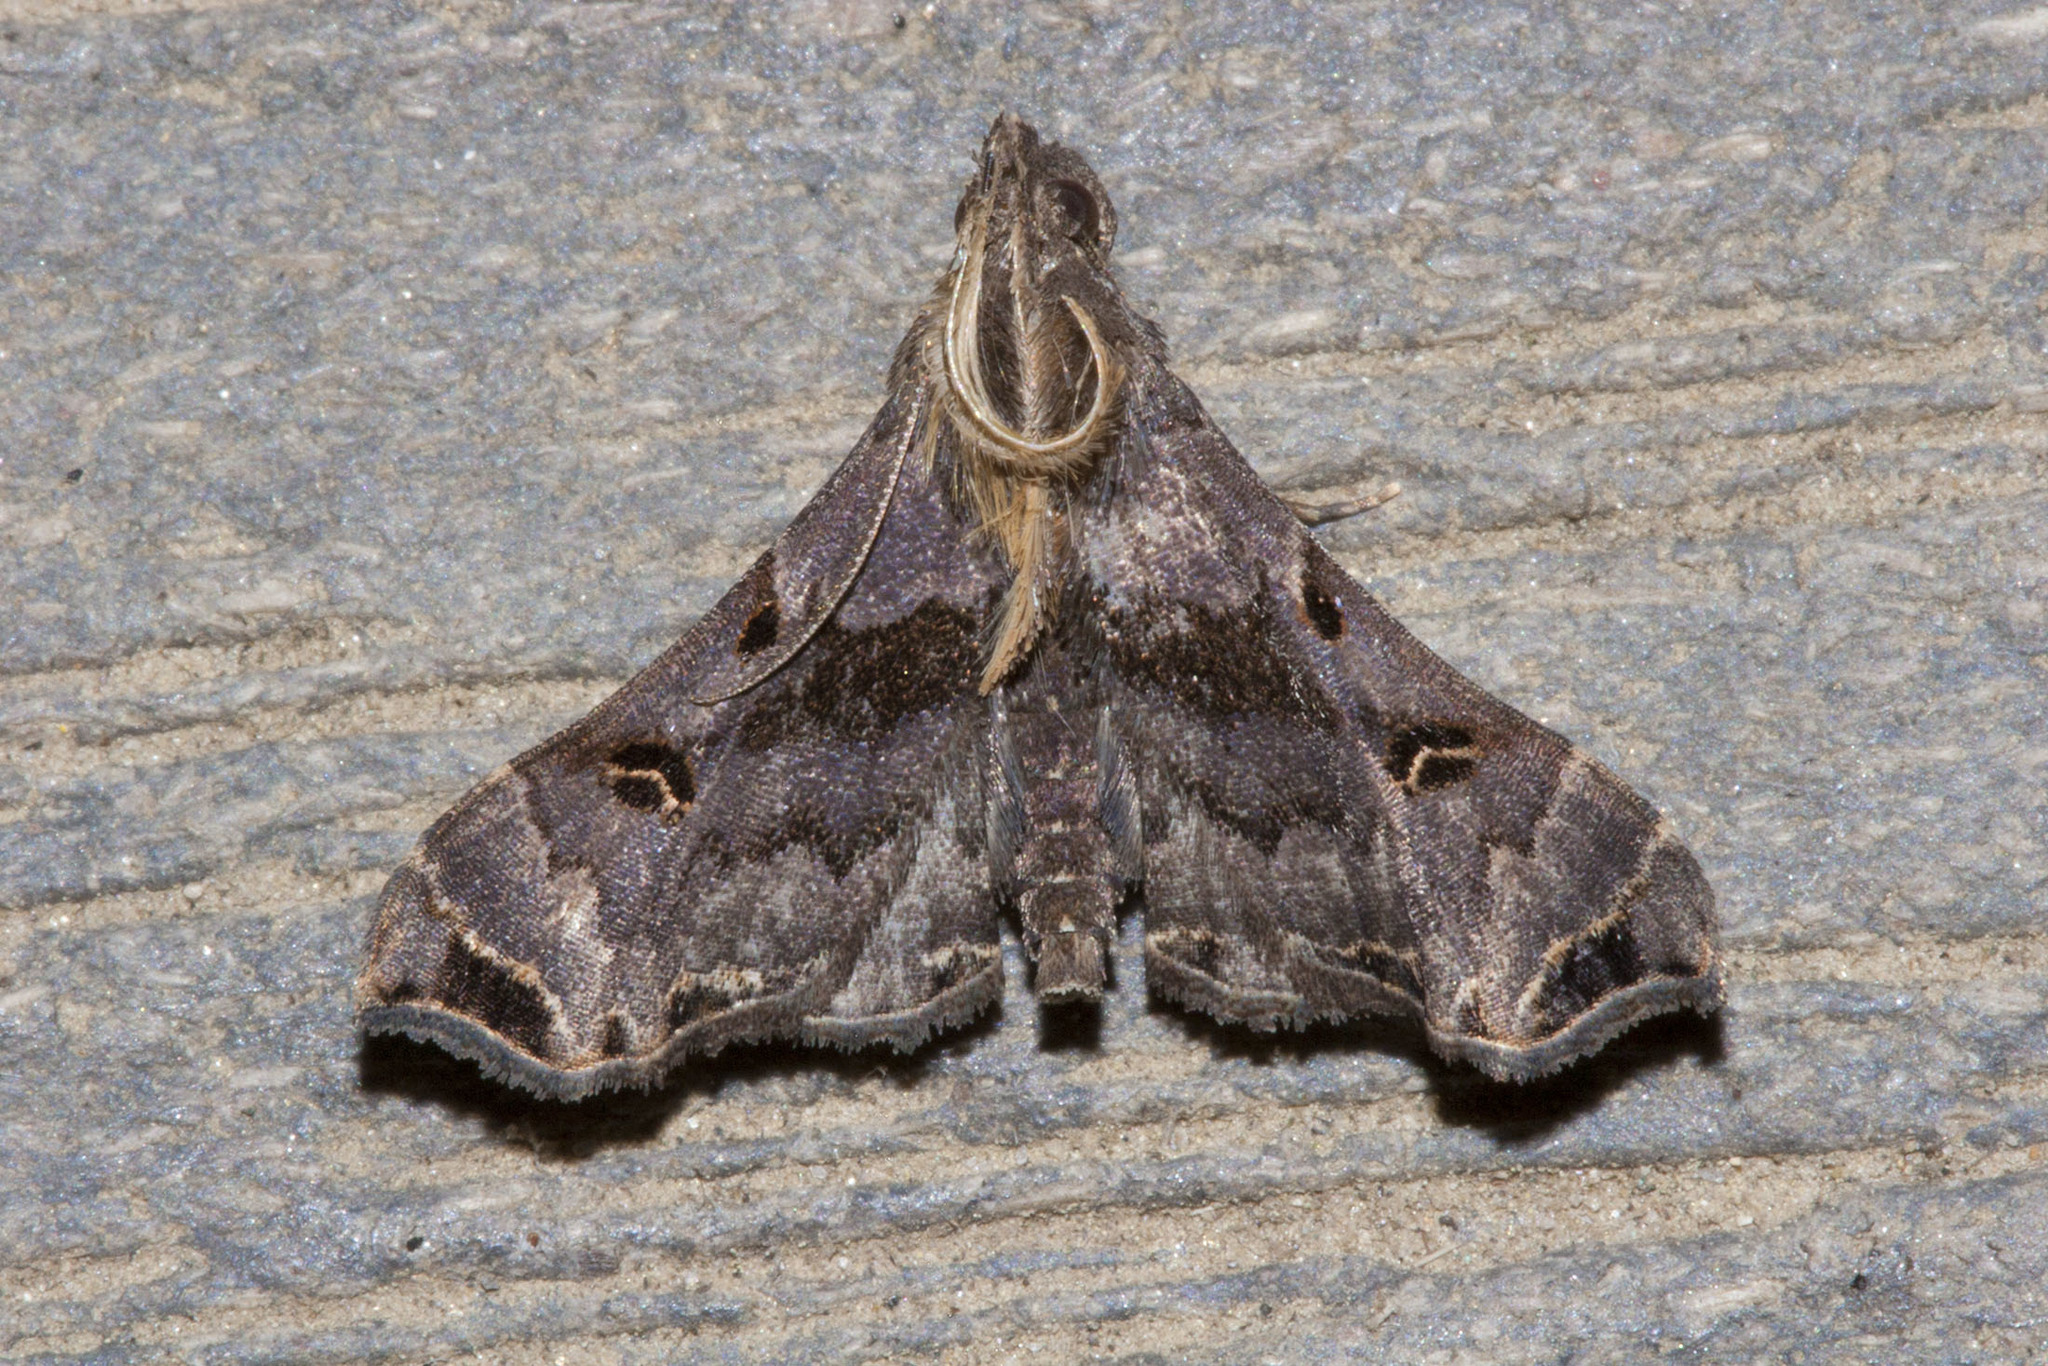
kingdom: Animalia
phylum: Arthropoda
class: Insecta
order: Lepidoptera
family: Erebidae
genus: Palthis
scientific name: Palthis asopialis
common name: Faint-spotted palthis moth
